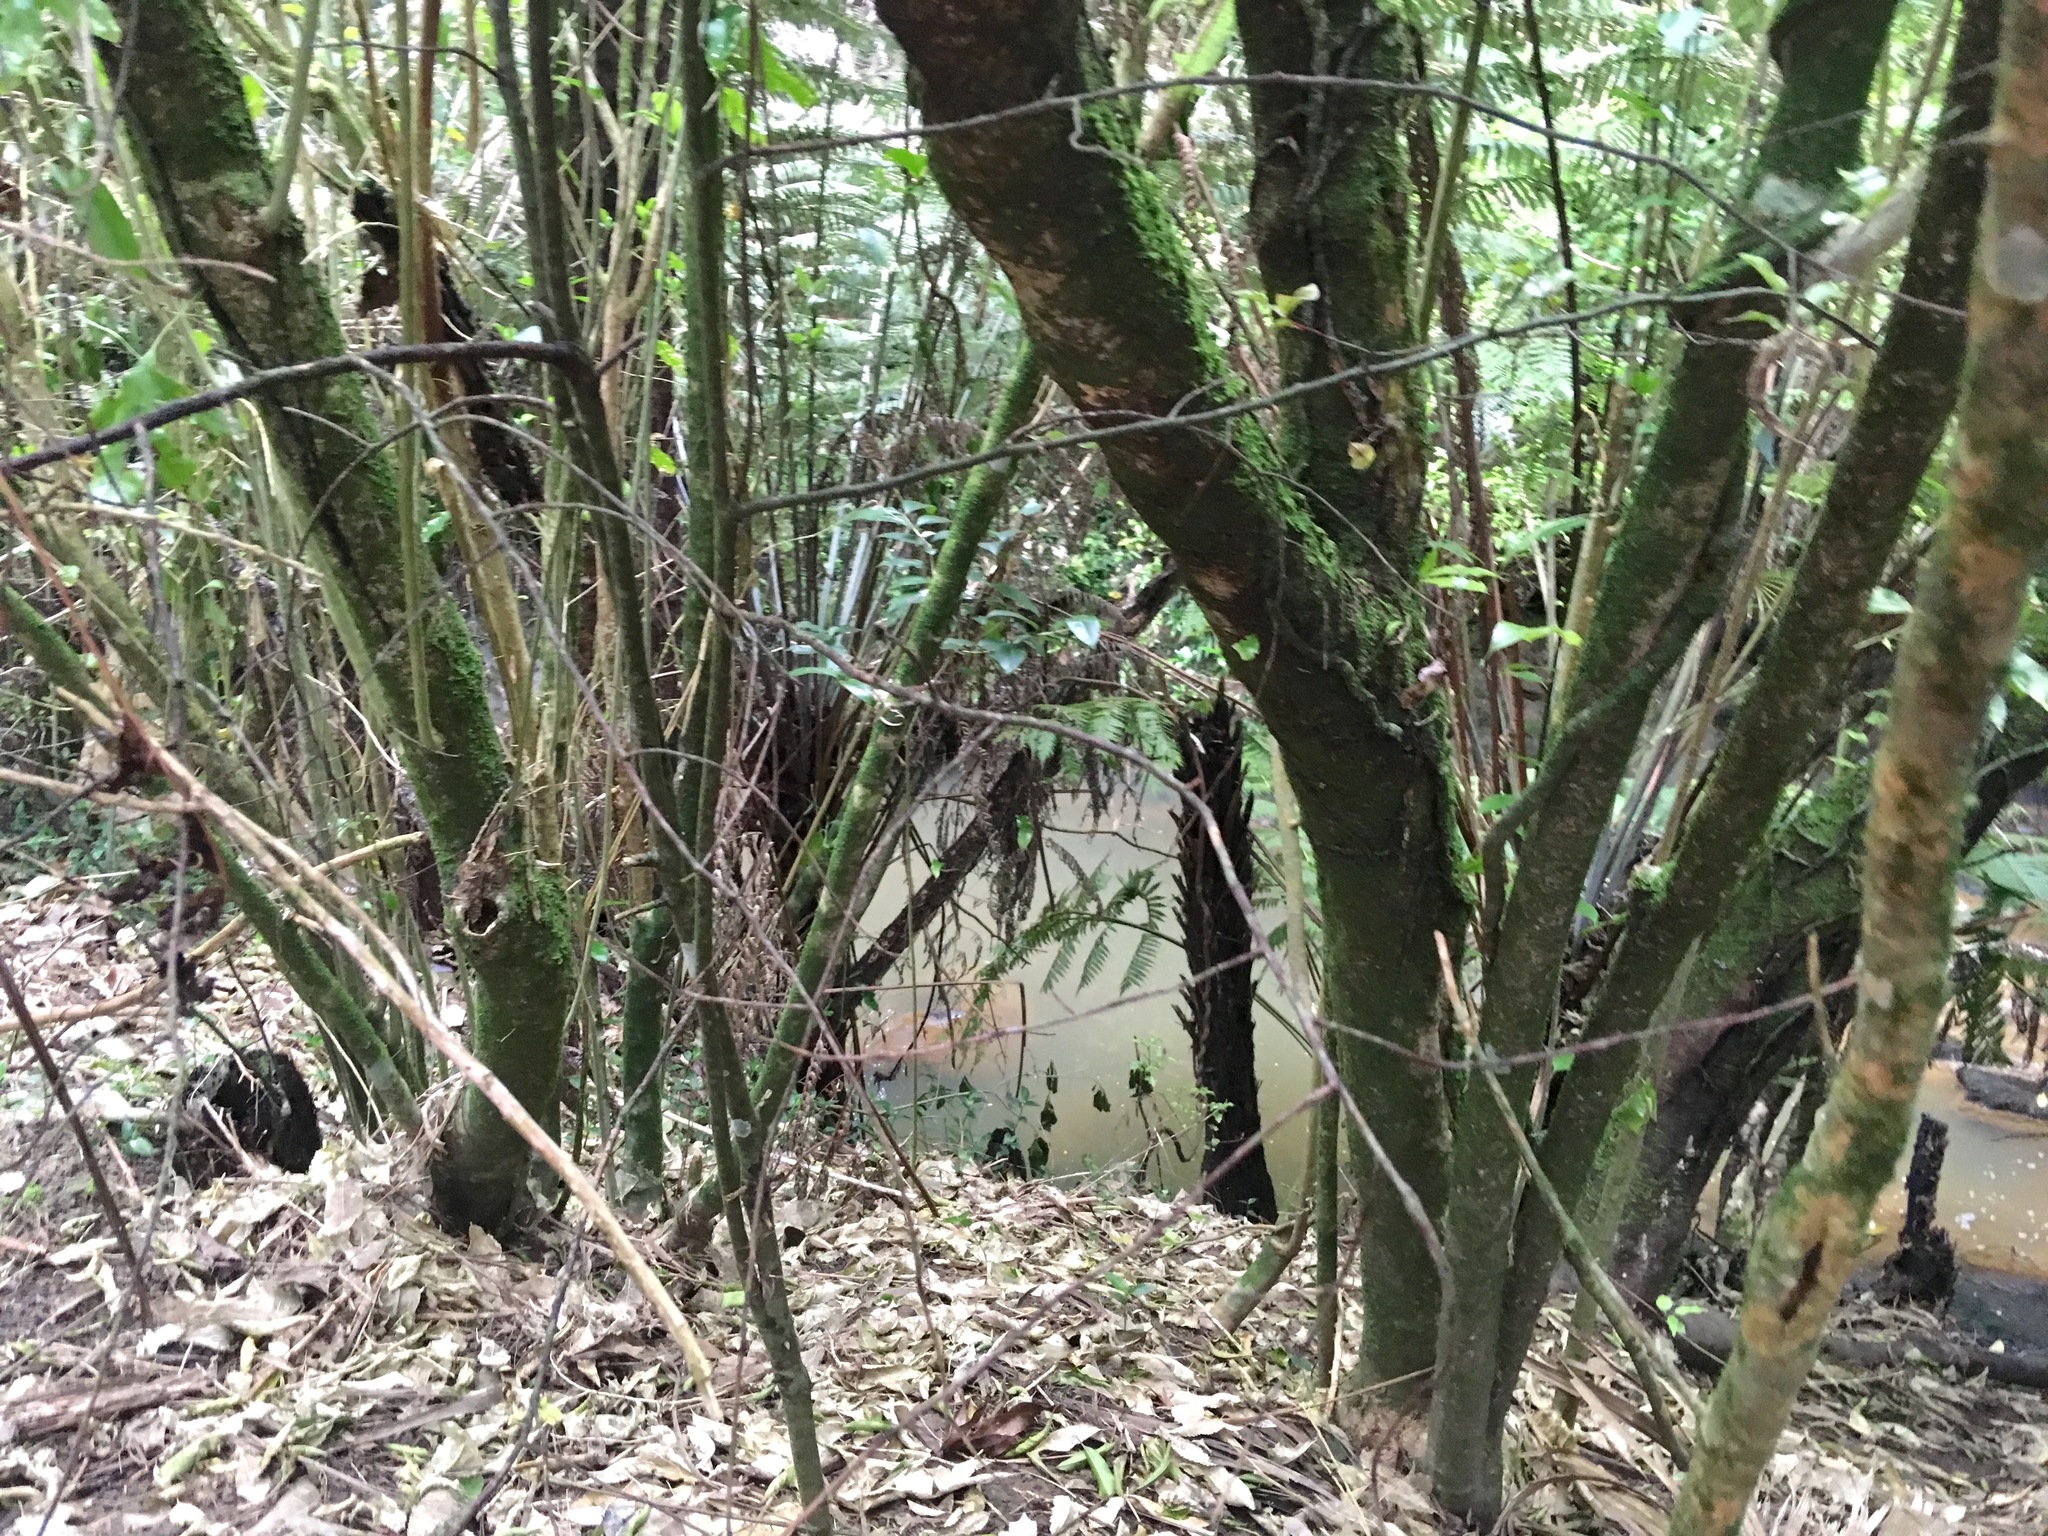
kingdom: Plantae
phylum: Tracheophyta
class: Polypodiopsida
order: Cyatheales
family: Cyatheaceae
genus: Alsophila
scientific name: Alsophila dealbata
